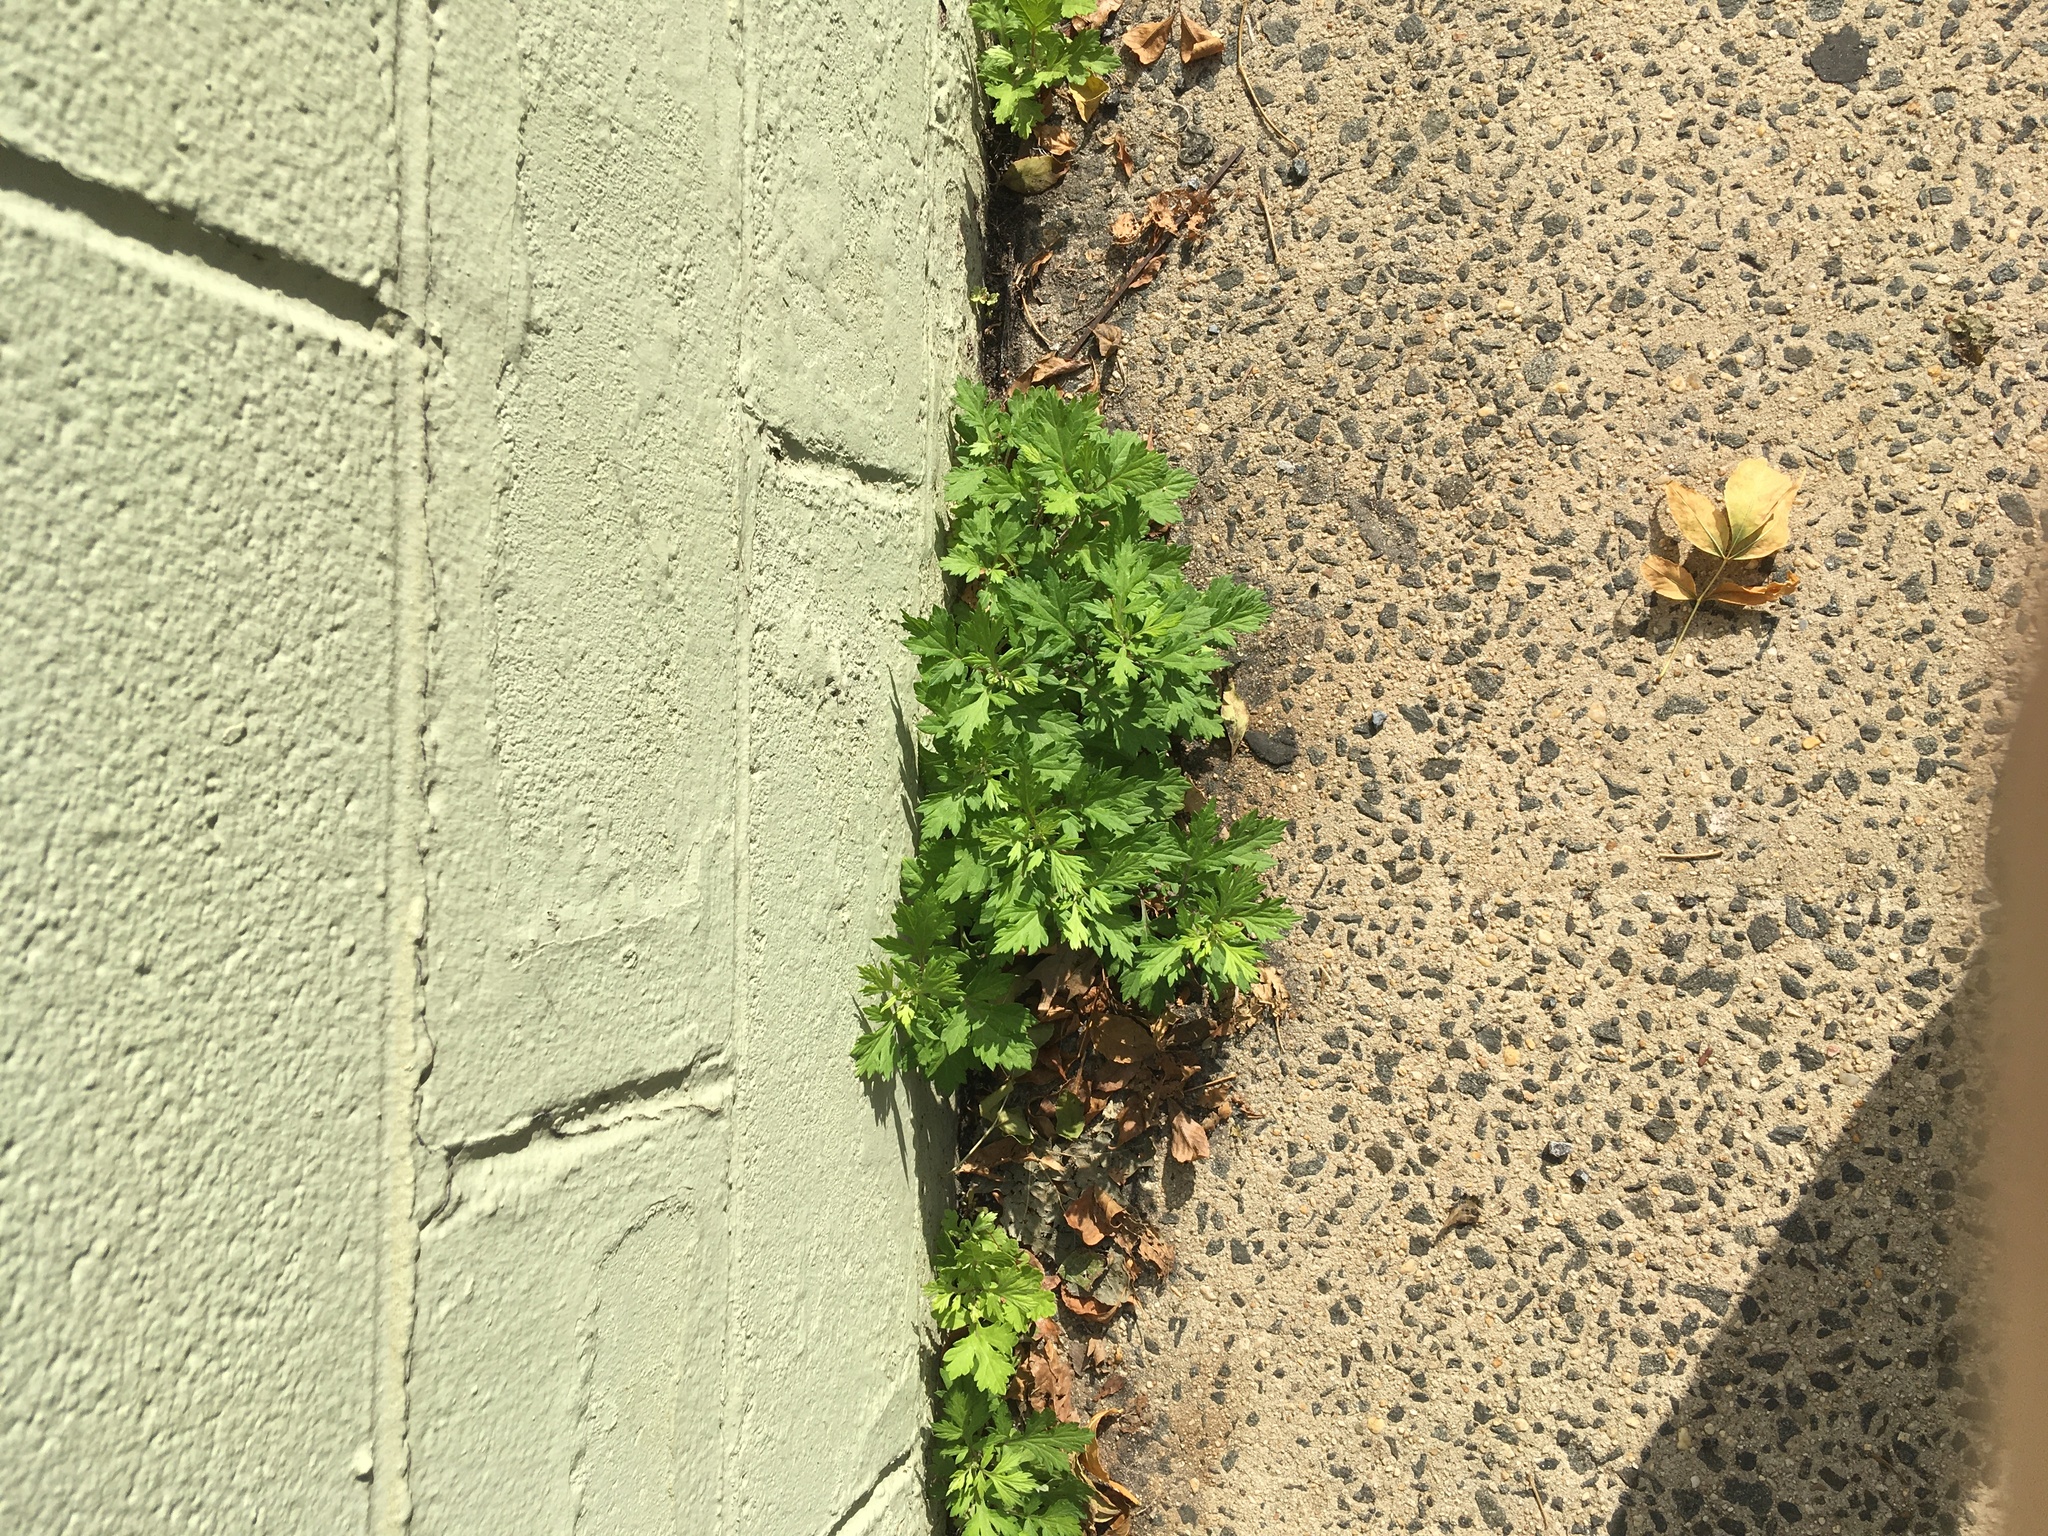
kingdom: Plantae
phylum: Tracheophyta
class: Magnoliopsida
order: Asterales
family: Asteraceae
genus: Artemisia
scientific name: Artemisia vulgaris
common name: Mugwort
